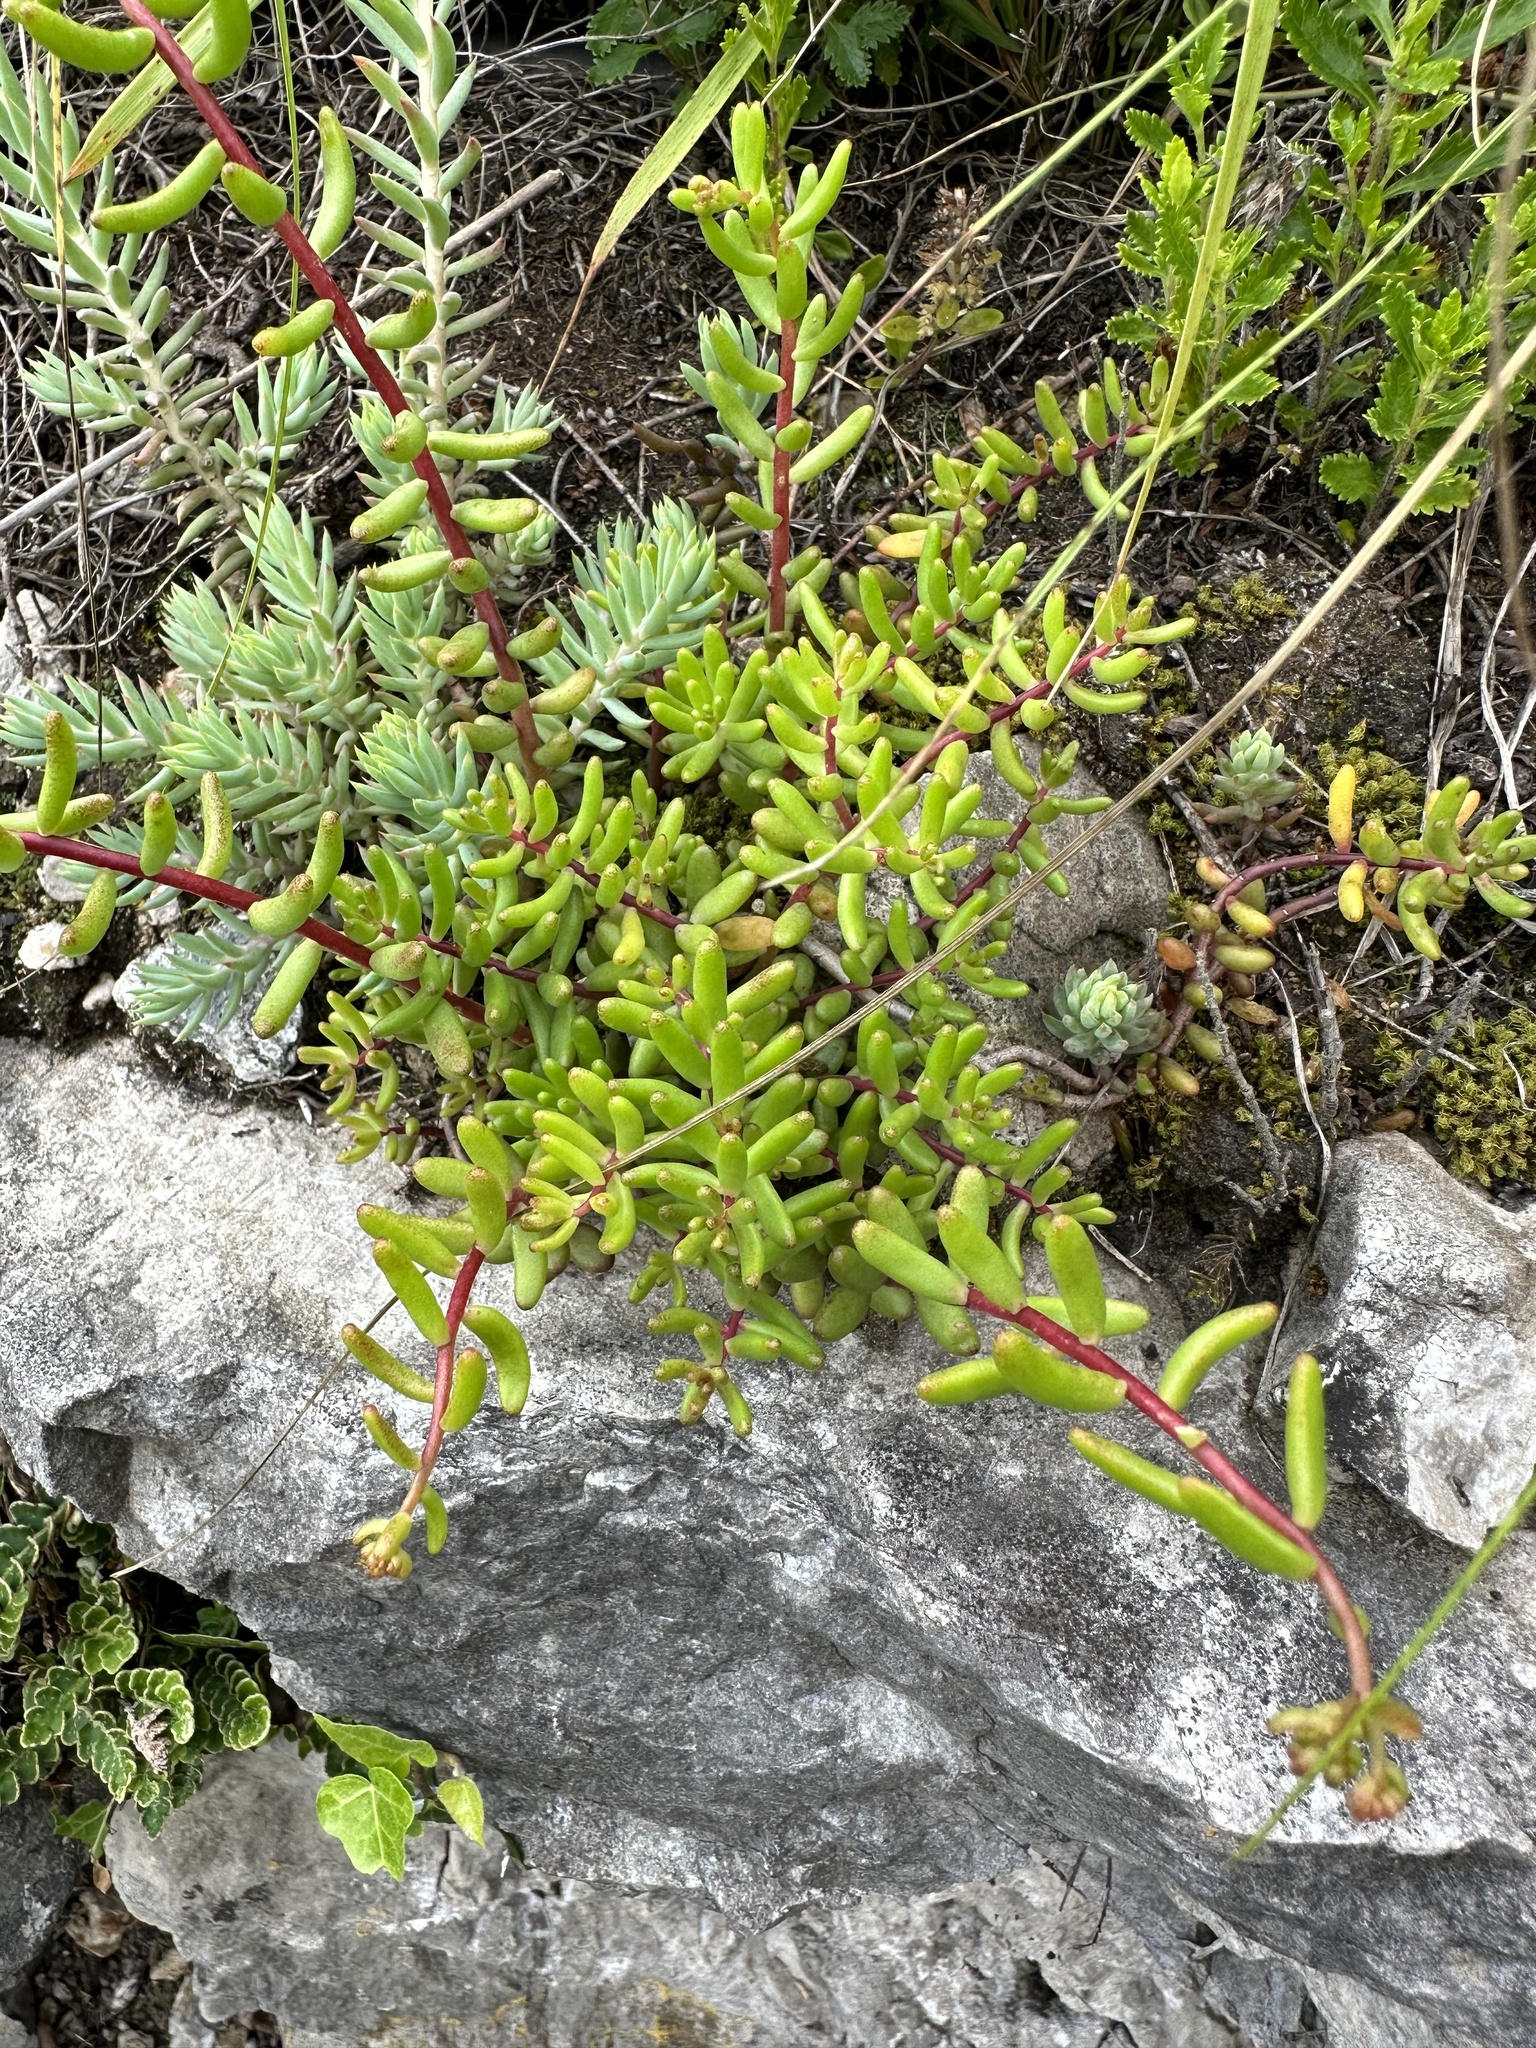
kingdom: Plantae
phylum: Tracheophyta
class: Magnoliopsida
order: Saxifragales
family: Crassulaceae
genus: Sedum
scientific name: Sedum album
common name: White stonecrop
